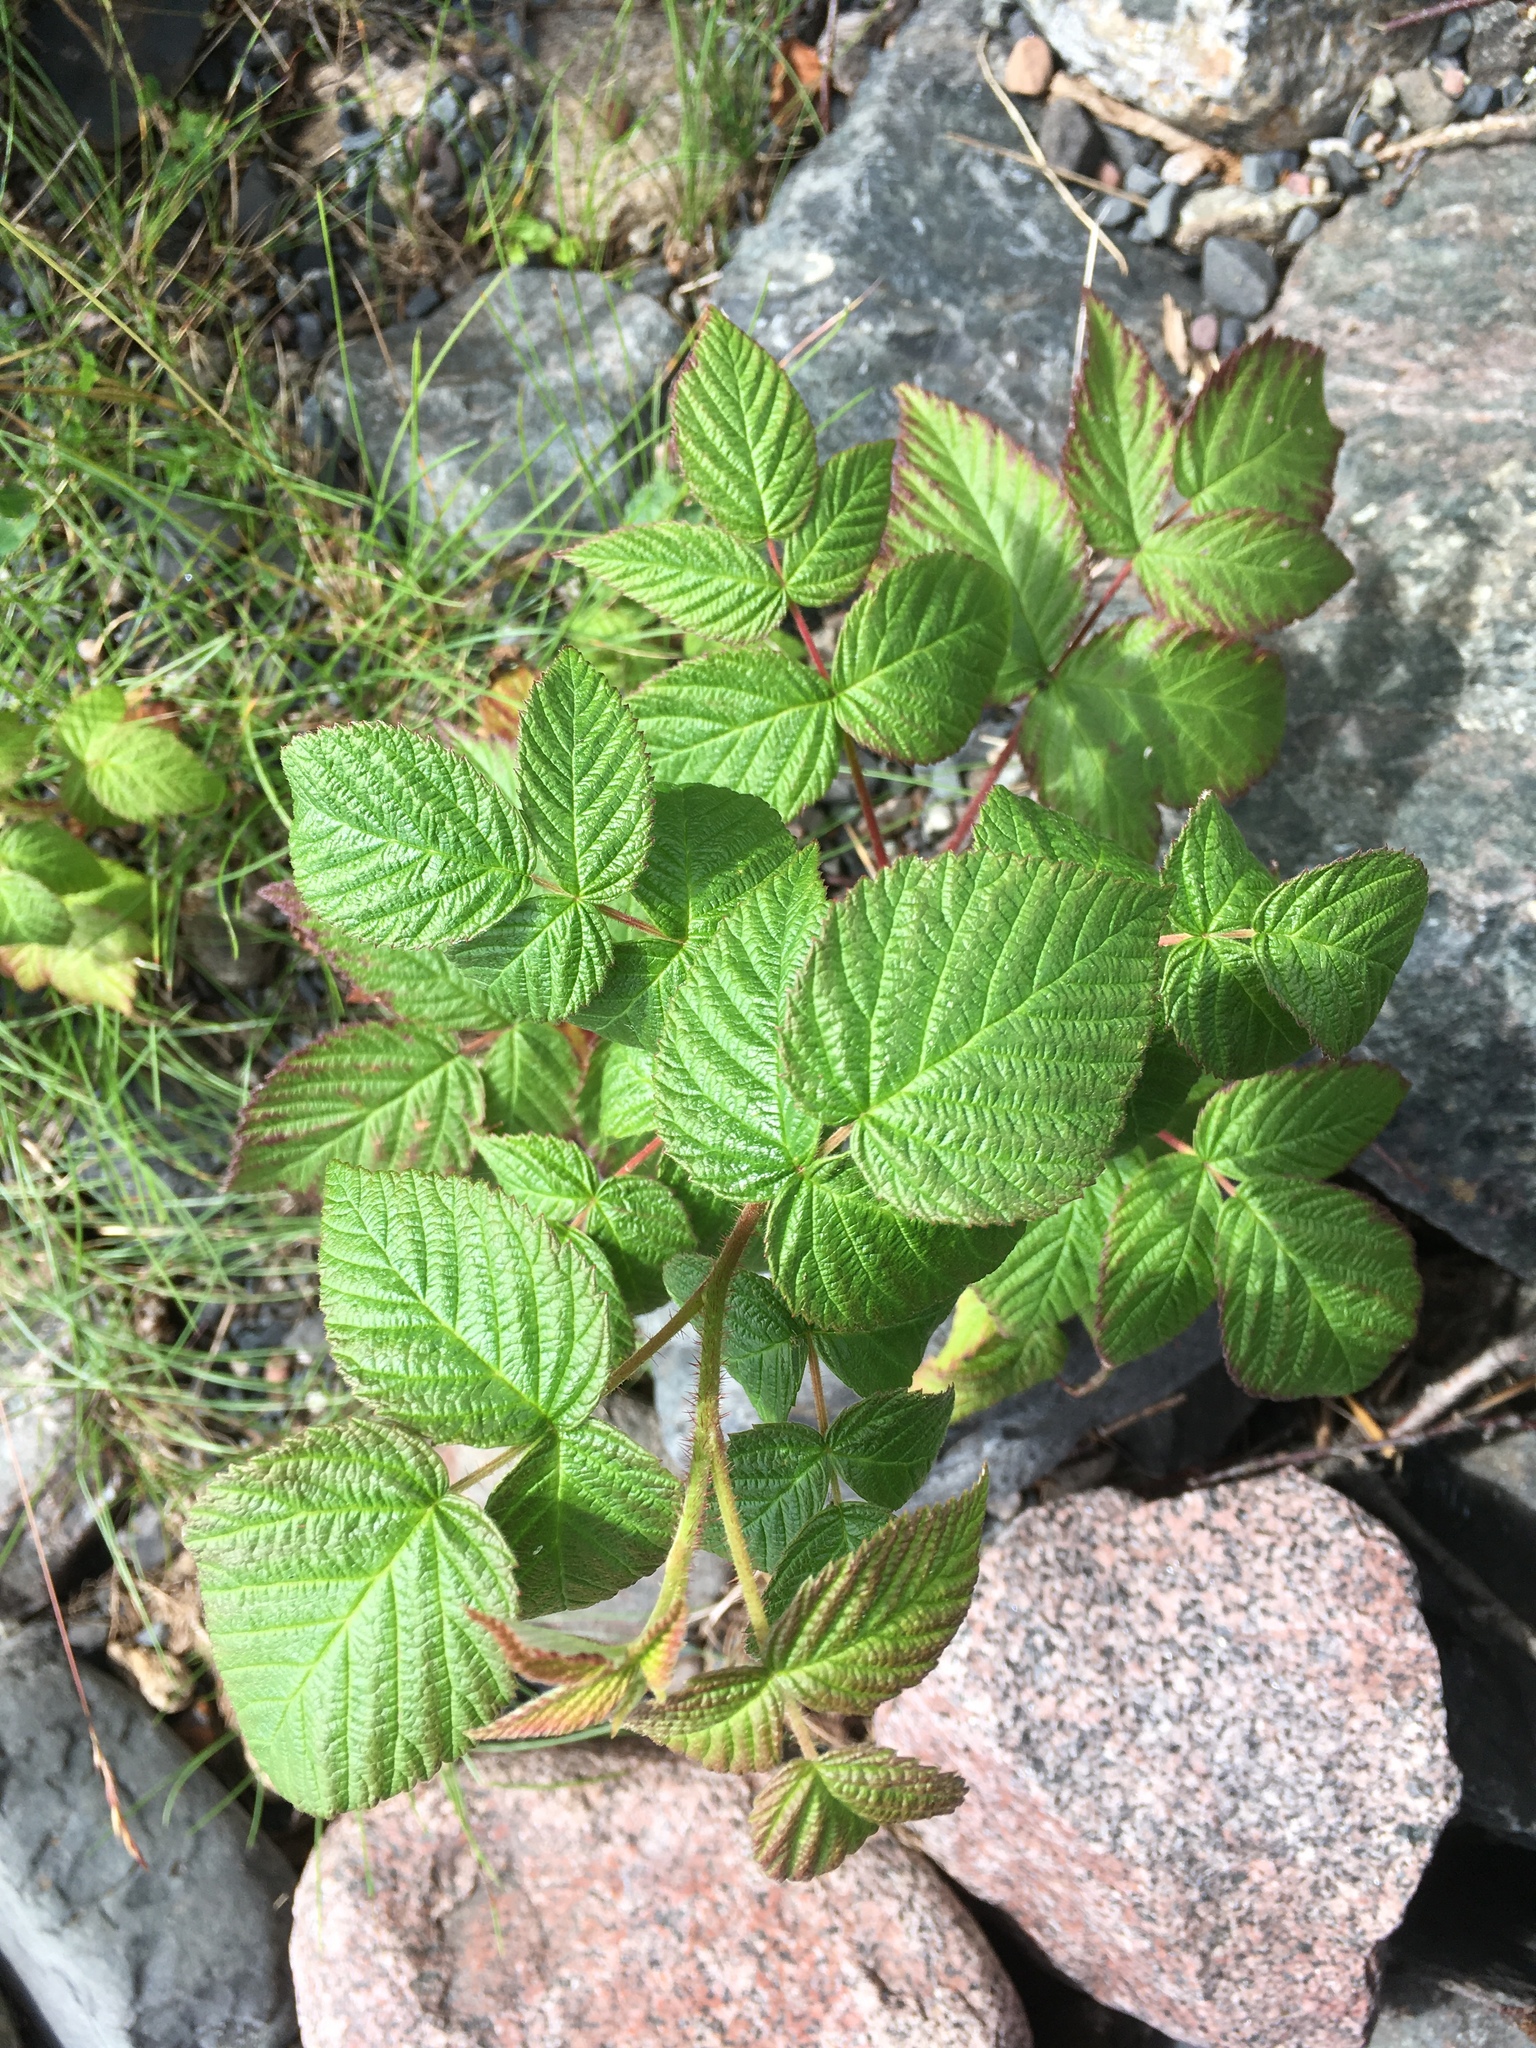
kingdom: Plantae
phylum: Tracheophyta
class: Magnoliopsida
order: Rosales
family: Rosaceae
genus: Rubus
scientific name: Rubus idaeus
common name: Raspberry
